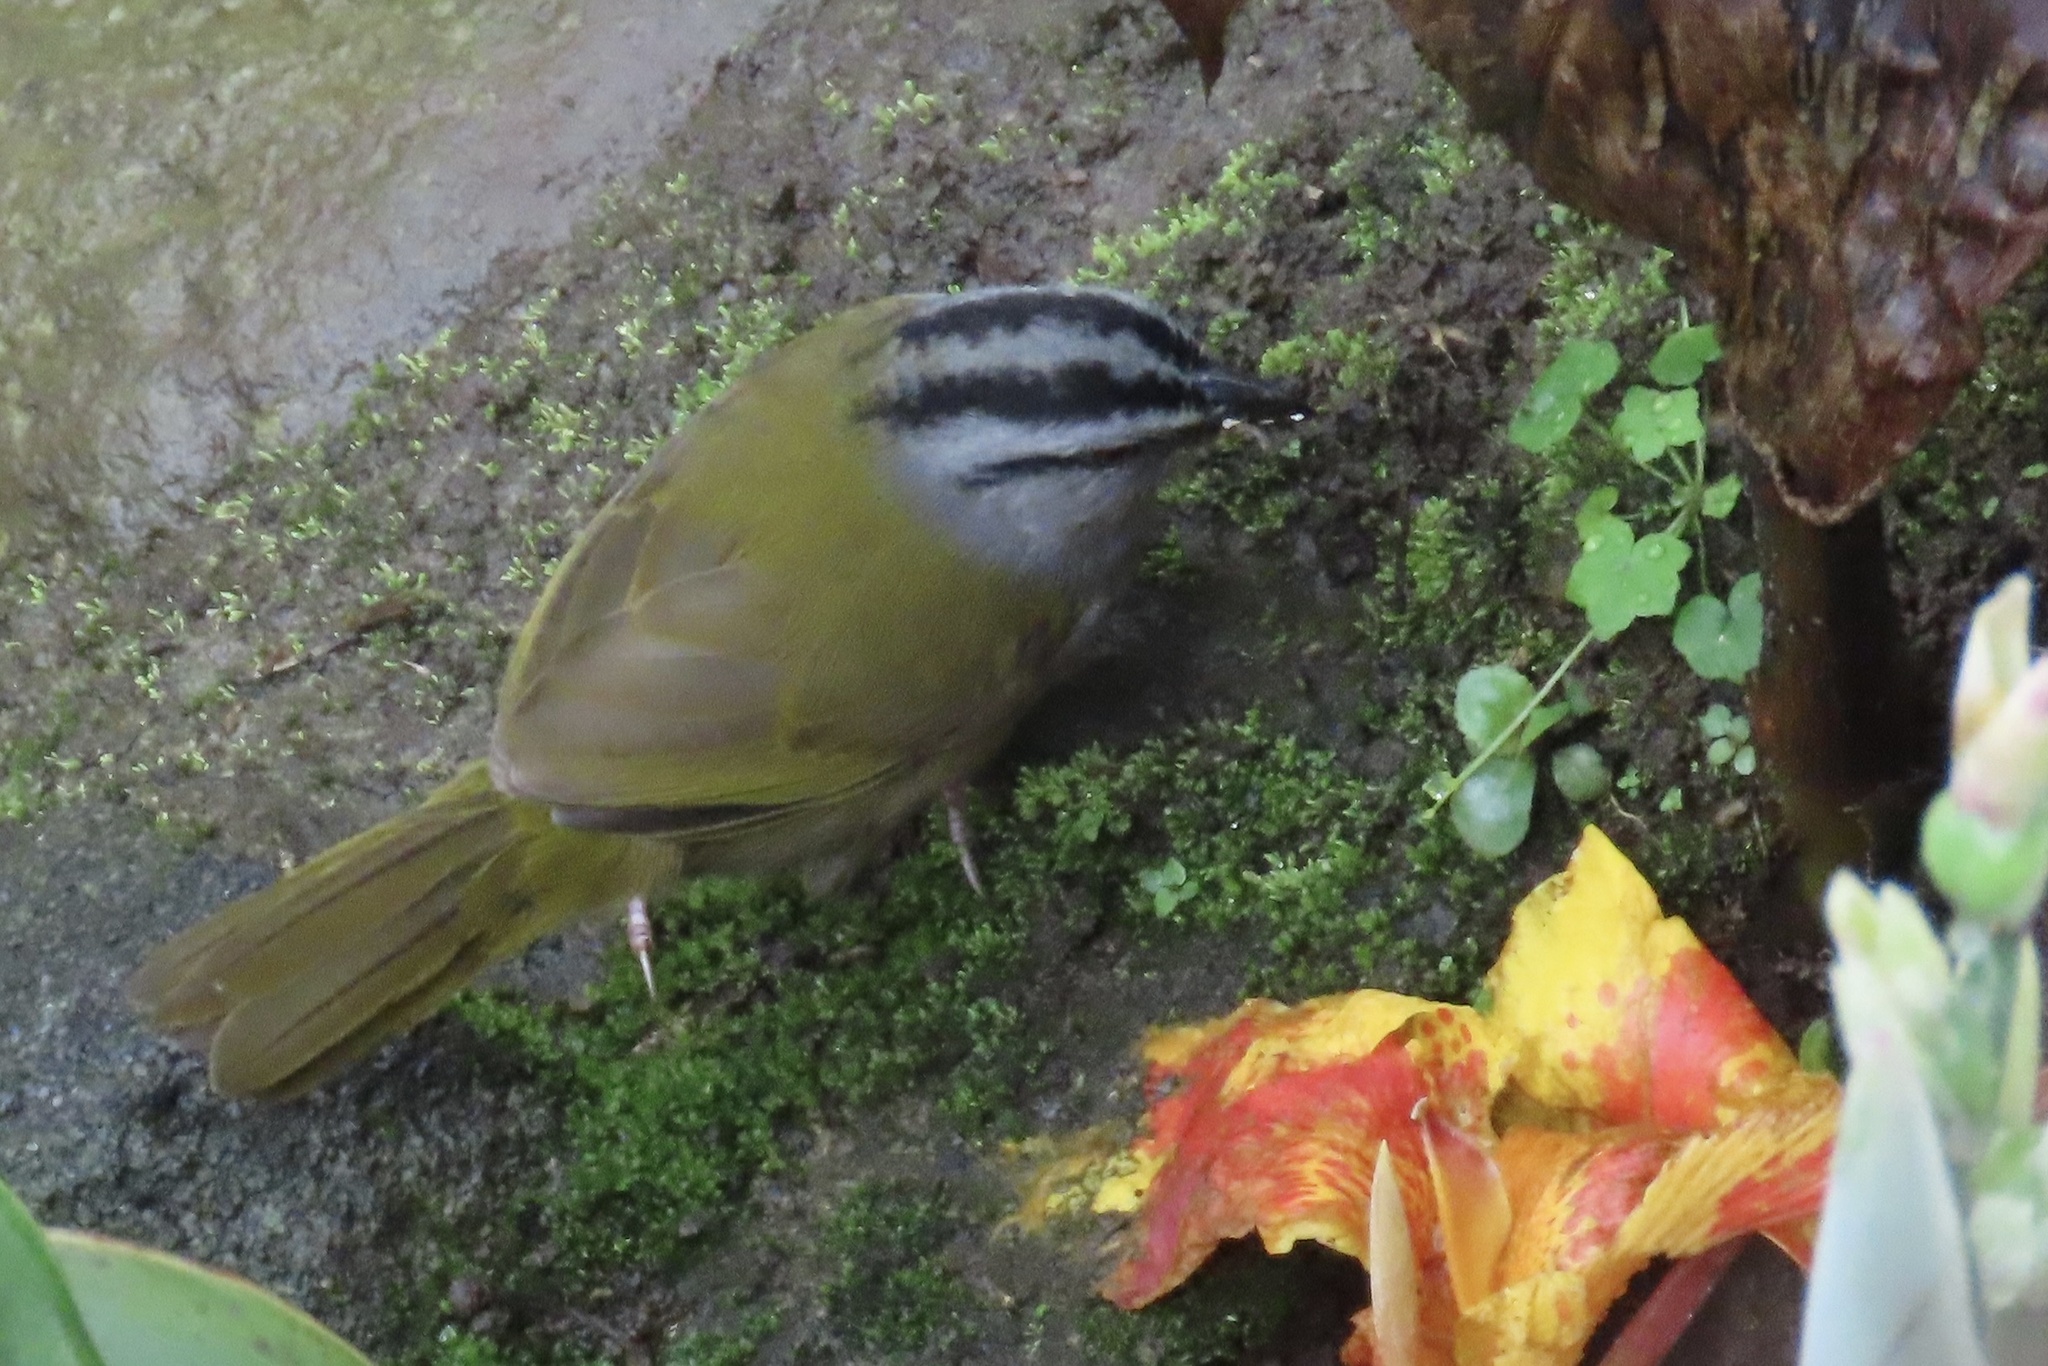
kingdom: Animalia
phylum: Chordata
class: Aves
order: Passeriformes
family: Passerellidae
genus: Arremonops
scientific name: Arremonops conirostris
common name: Black-striped sparrow
